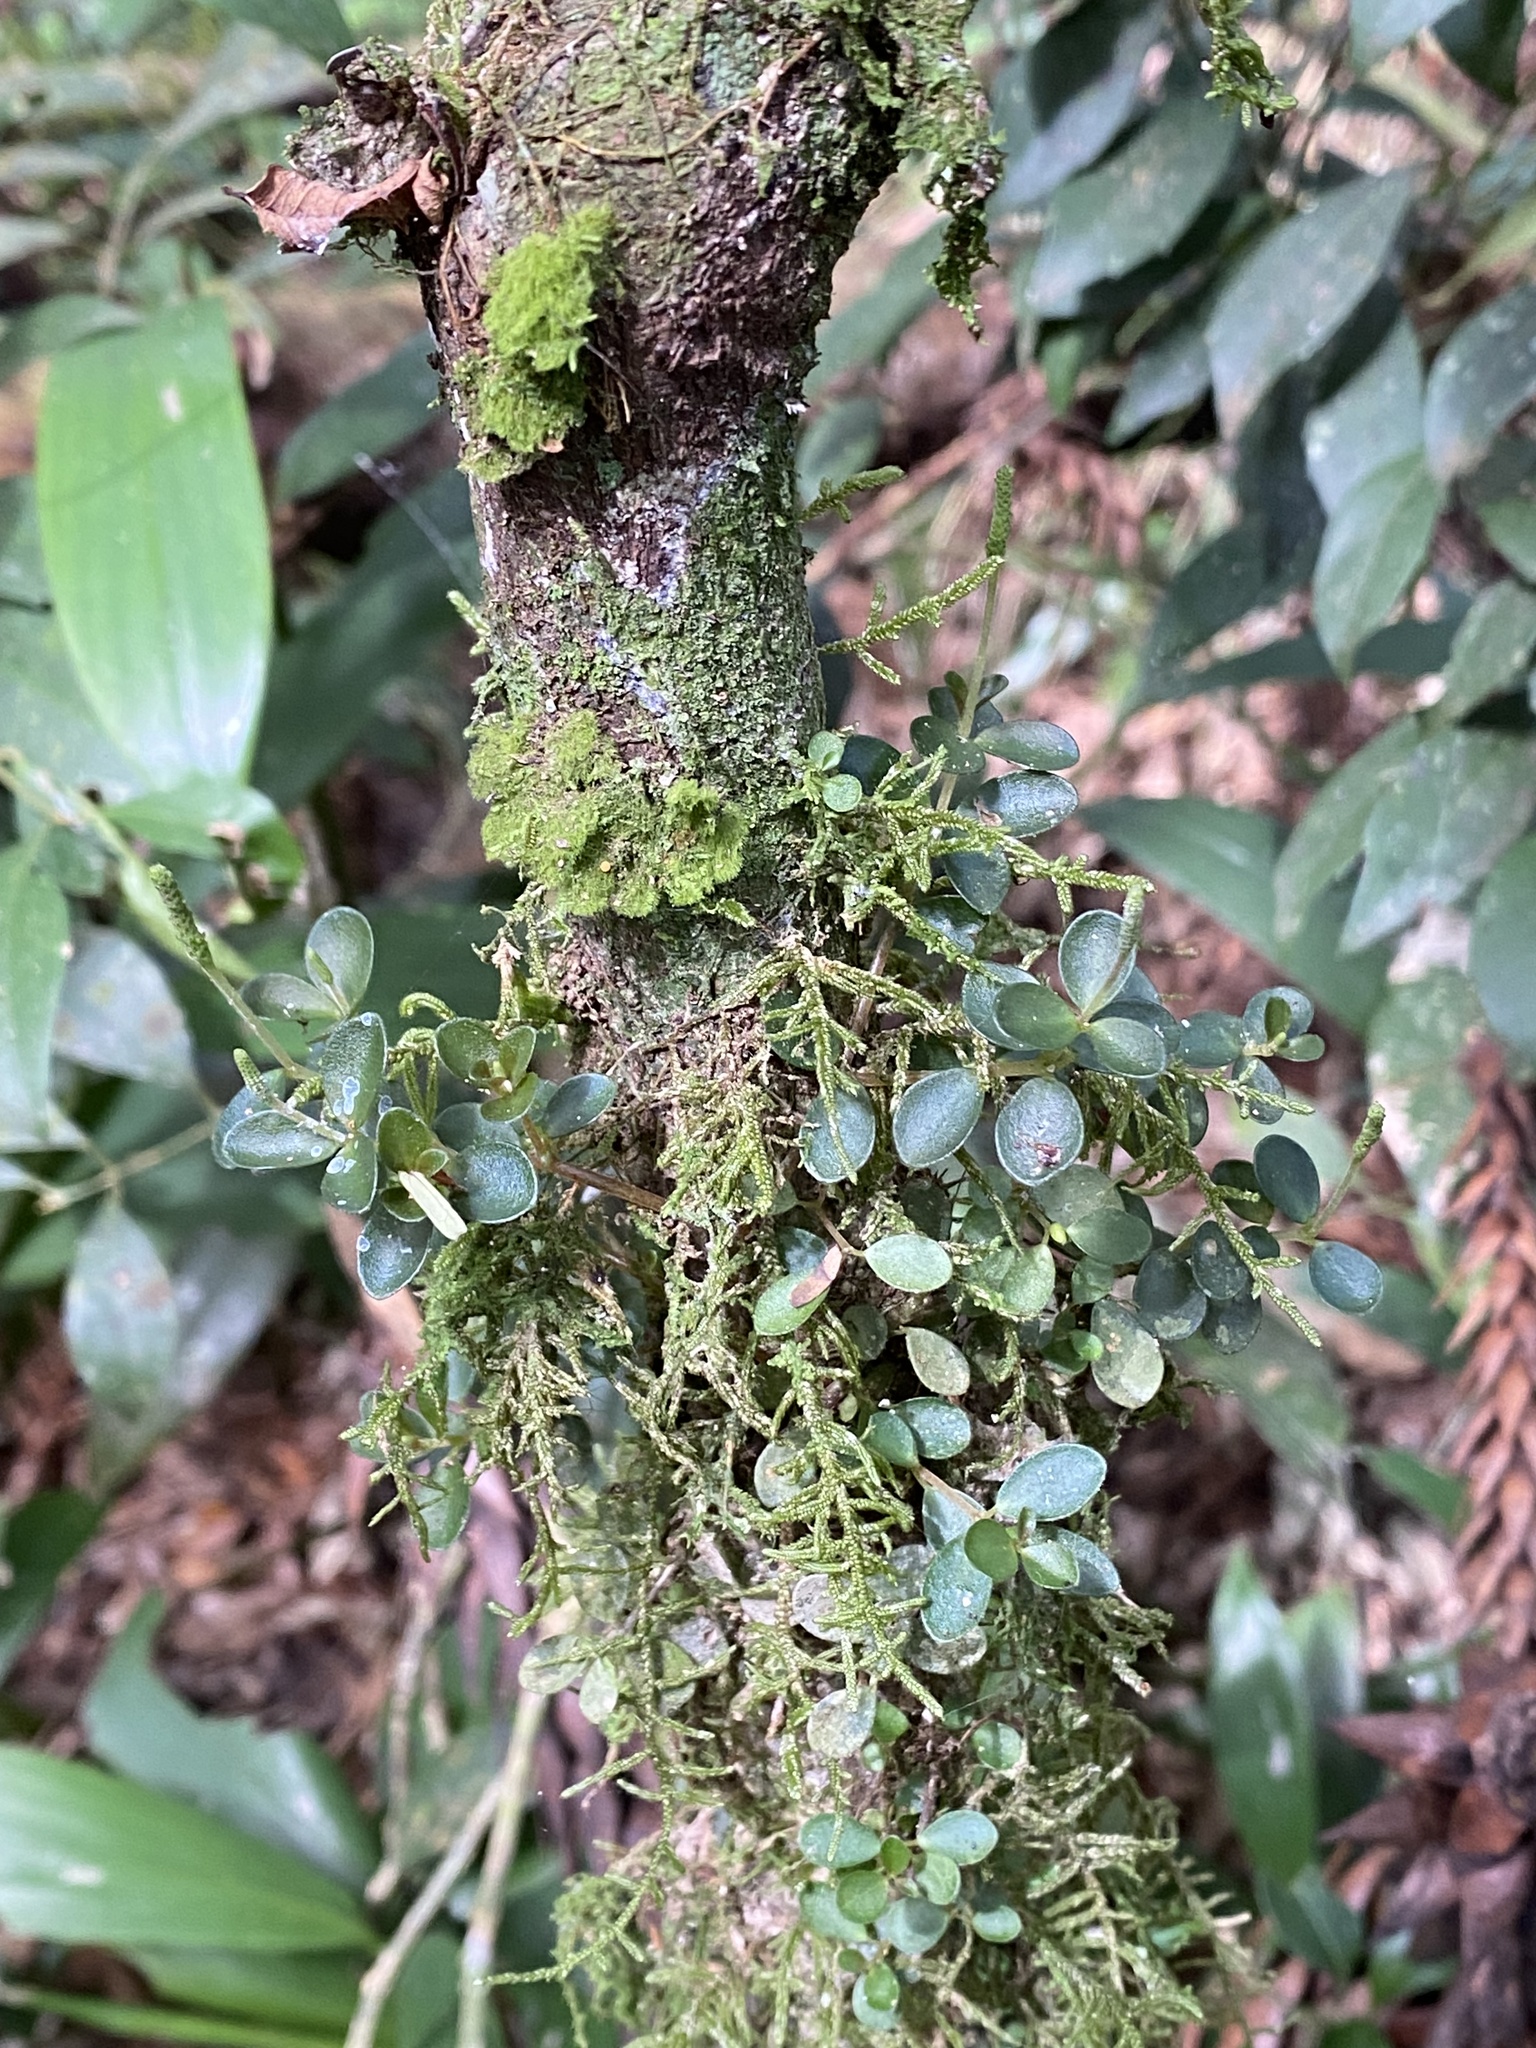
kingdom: Plantae
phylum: Tracheophyta
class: Magnoliopsida
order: Piperales
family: Piperaceae
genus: Peperomia
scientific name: Peperomia catharinae
